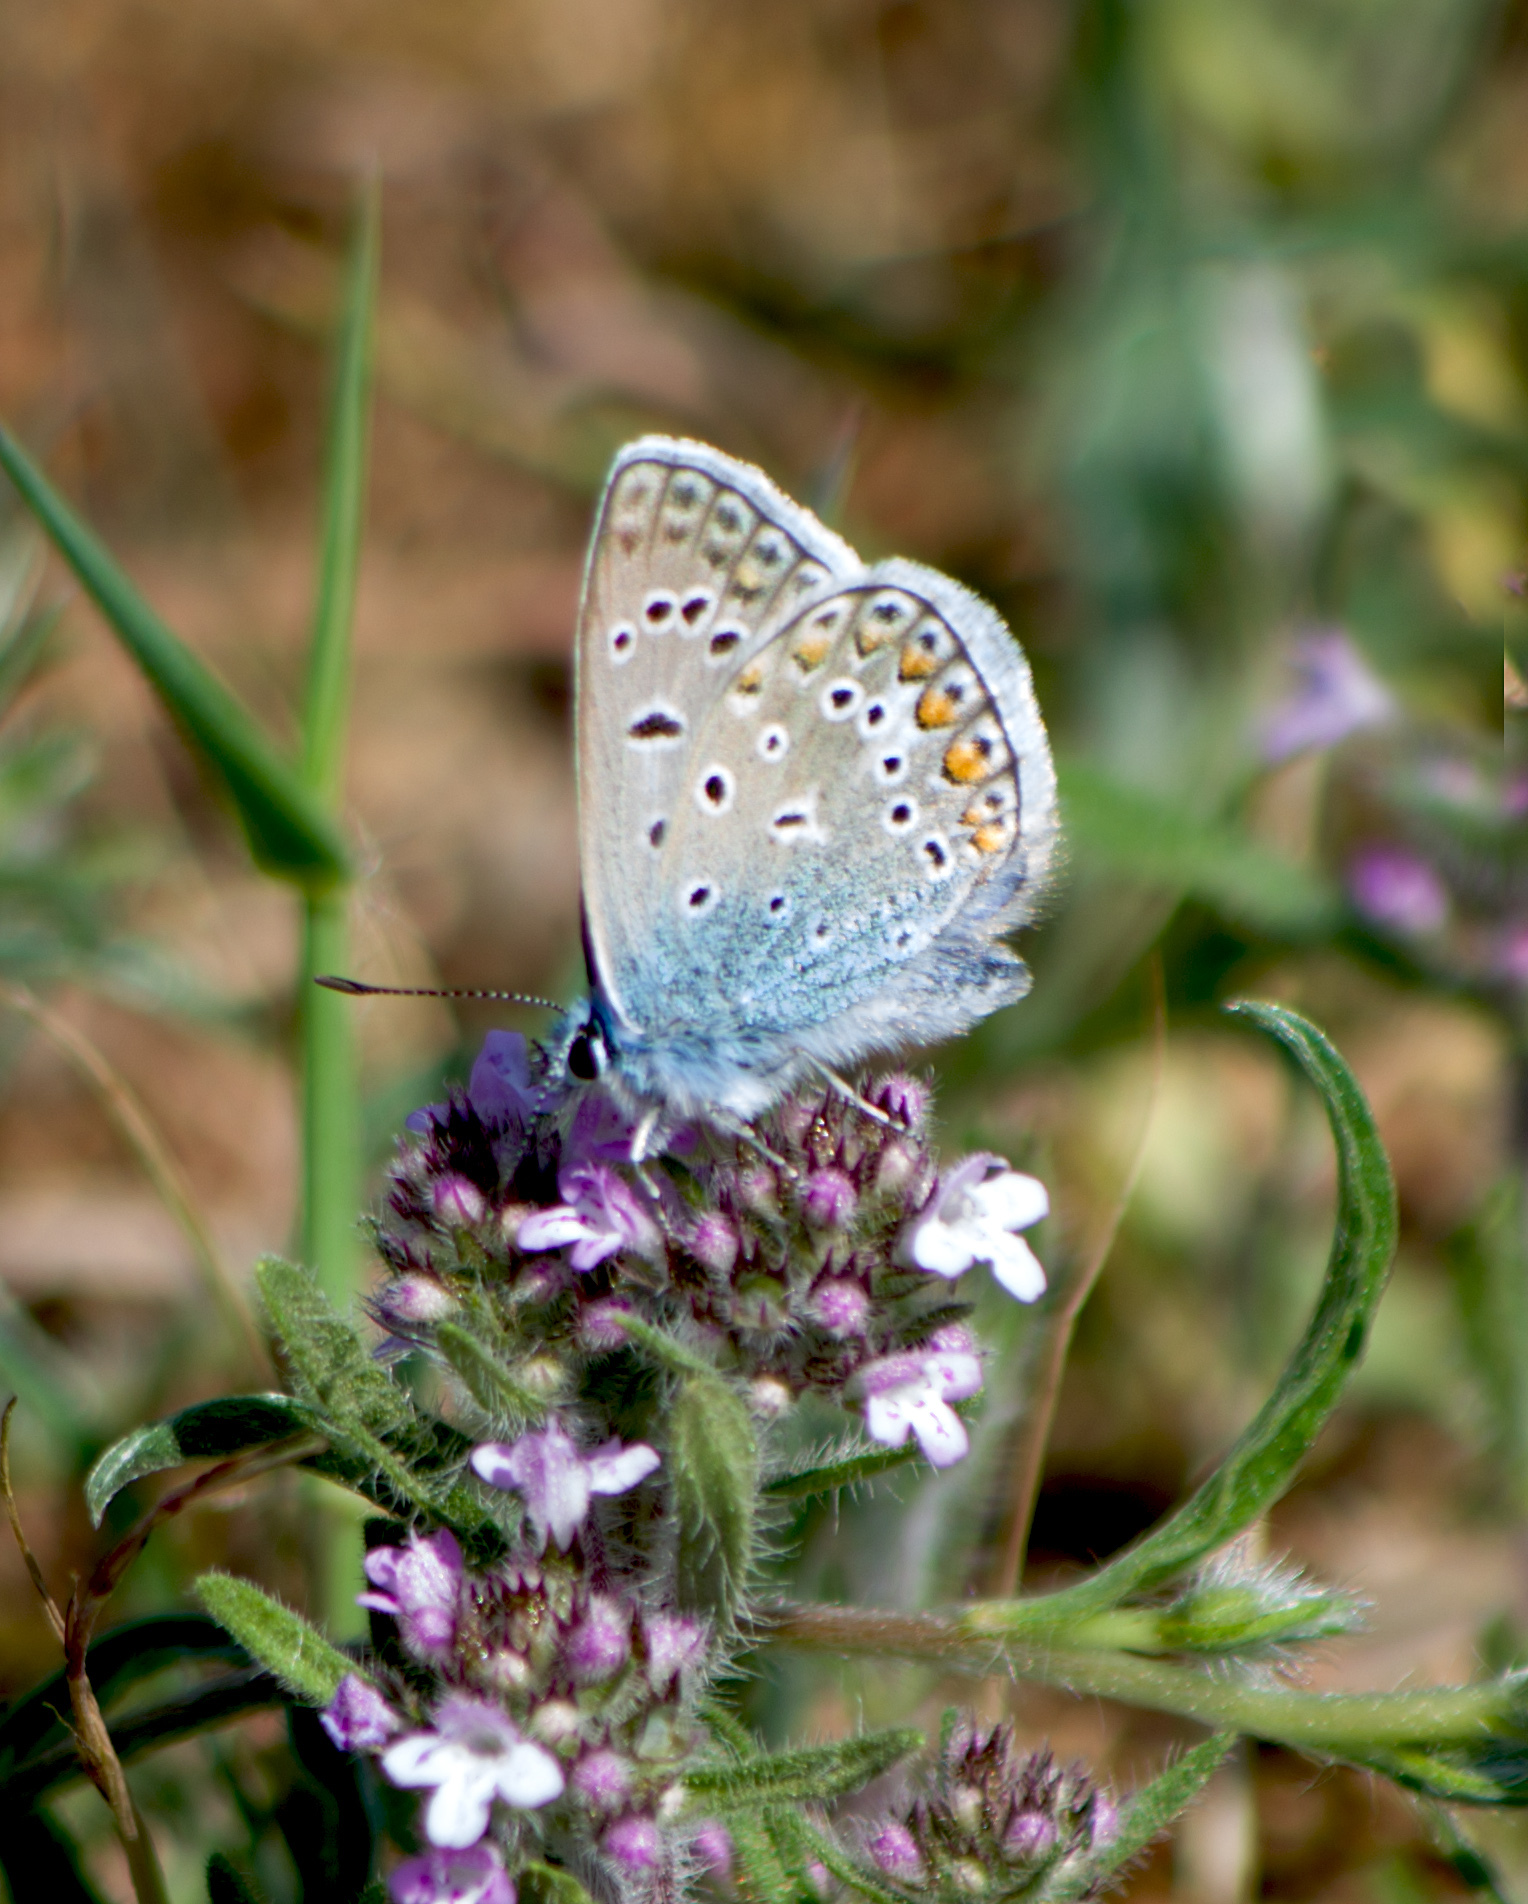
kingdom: Animalia
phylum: Arthropoda
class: Insecta
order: Lepidoptera
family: Lycaenidae
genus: Polyommatus
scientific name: Polyommatus icarus
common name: Common blue
